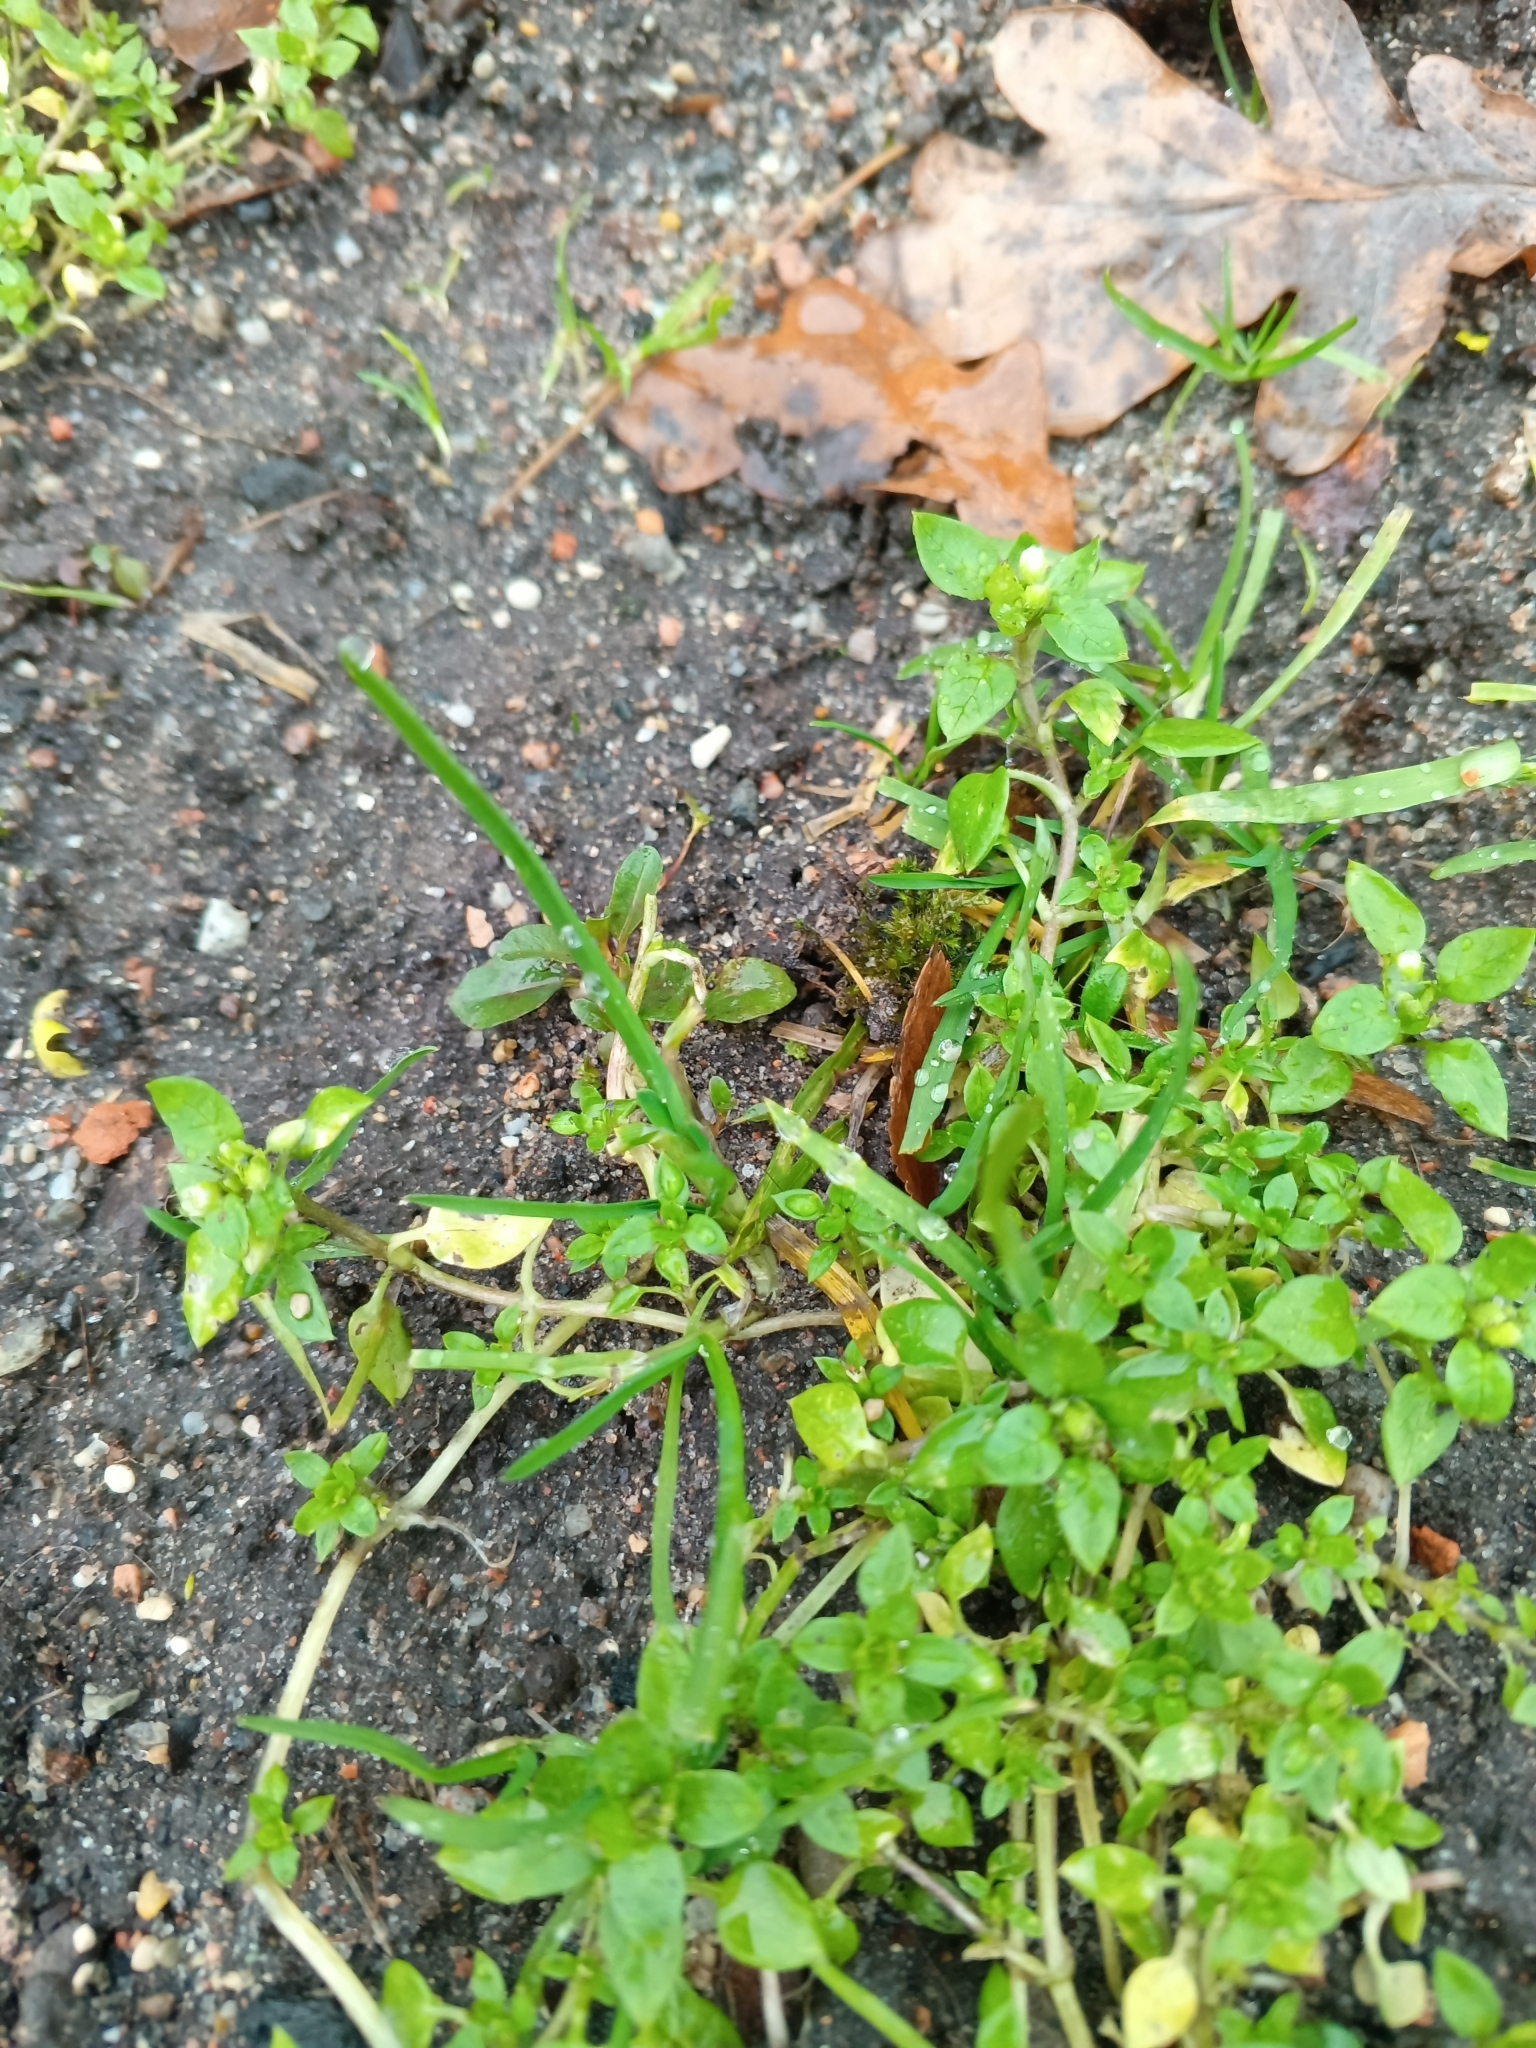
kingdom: Plantae
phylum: Tracheophyta
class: Magnoliopsida
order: Caryophyllales
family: Caryophyllaceae
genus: Stellaria
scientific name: Stellaria media
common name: Common chickweed
